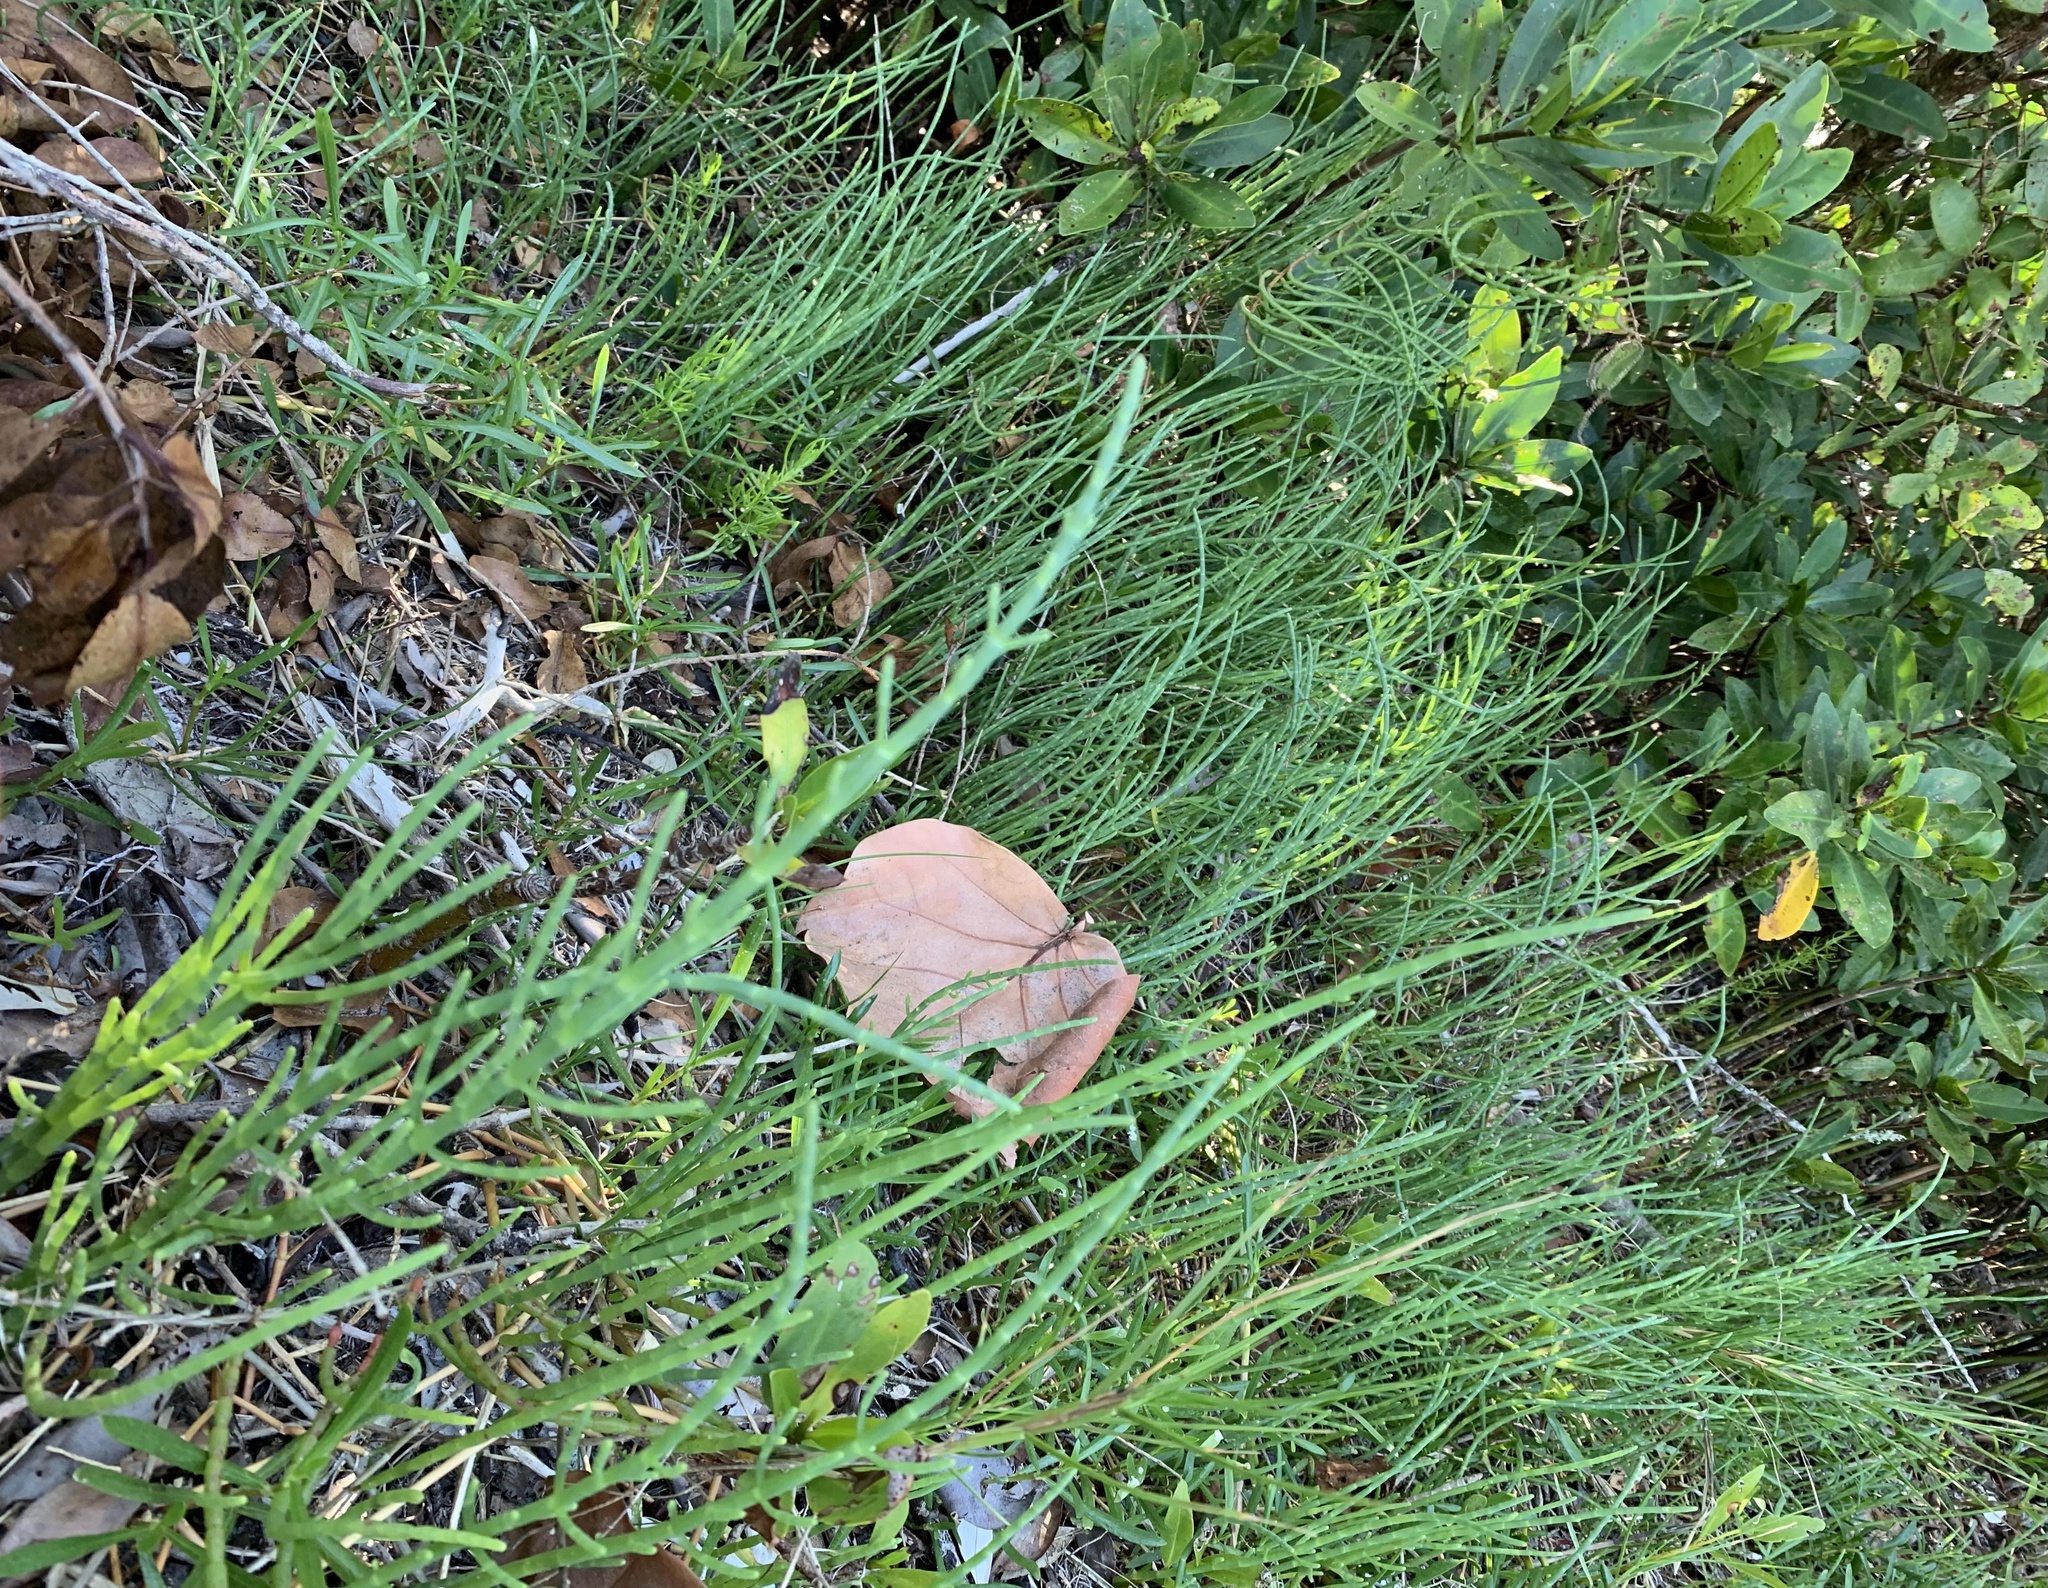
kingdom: Plantae
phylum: Tracheophyta
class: Magnoliopsida
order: Caryophyllales
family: Amaranthaceae
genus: Salicornia
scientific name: Salicornia bigelovii
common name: Dwarf glasswort
